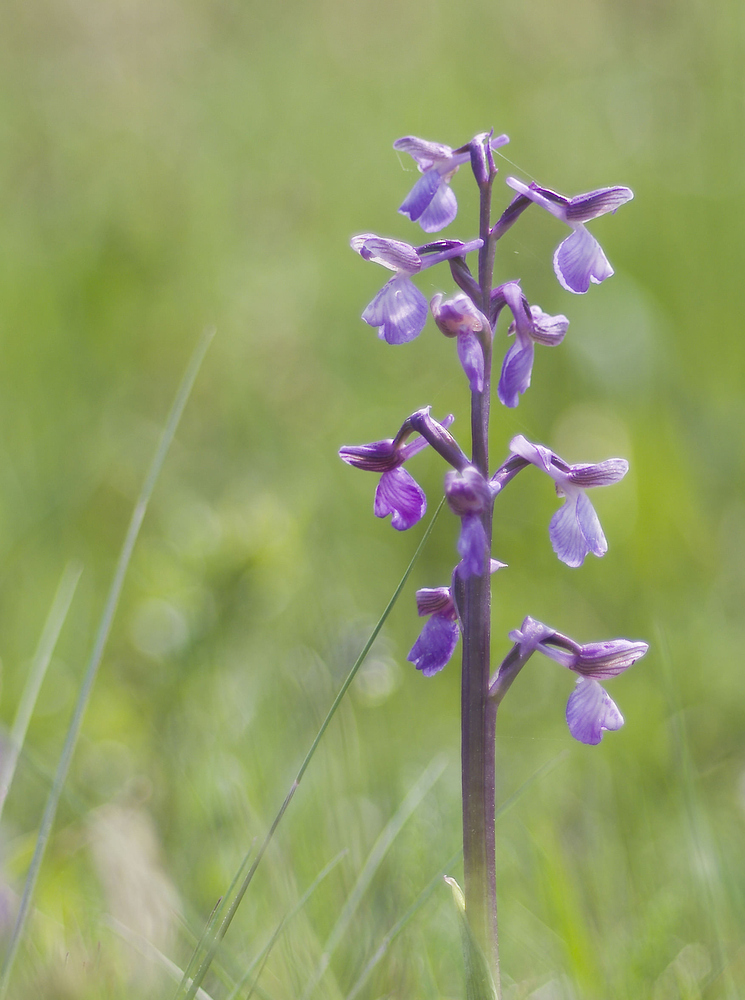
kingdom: Plantae
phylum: Tracheophyta
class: Liliopsida
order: Asparagales
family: Orchidaceae
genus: Anacamptis
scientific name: Anacamptis morio
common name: Green-winged orchid
